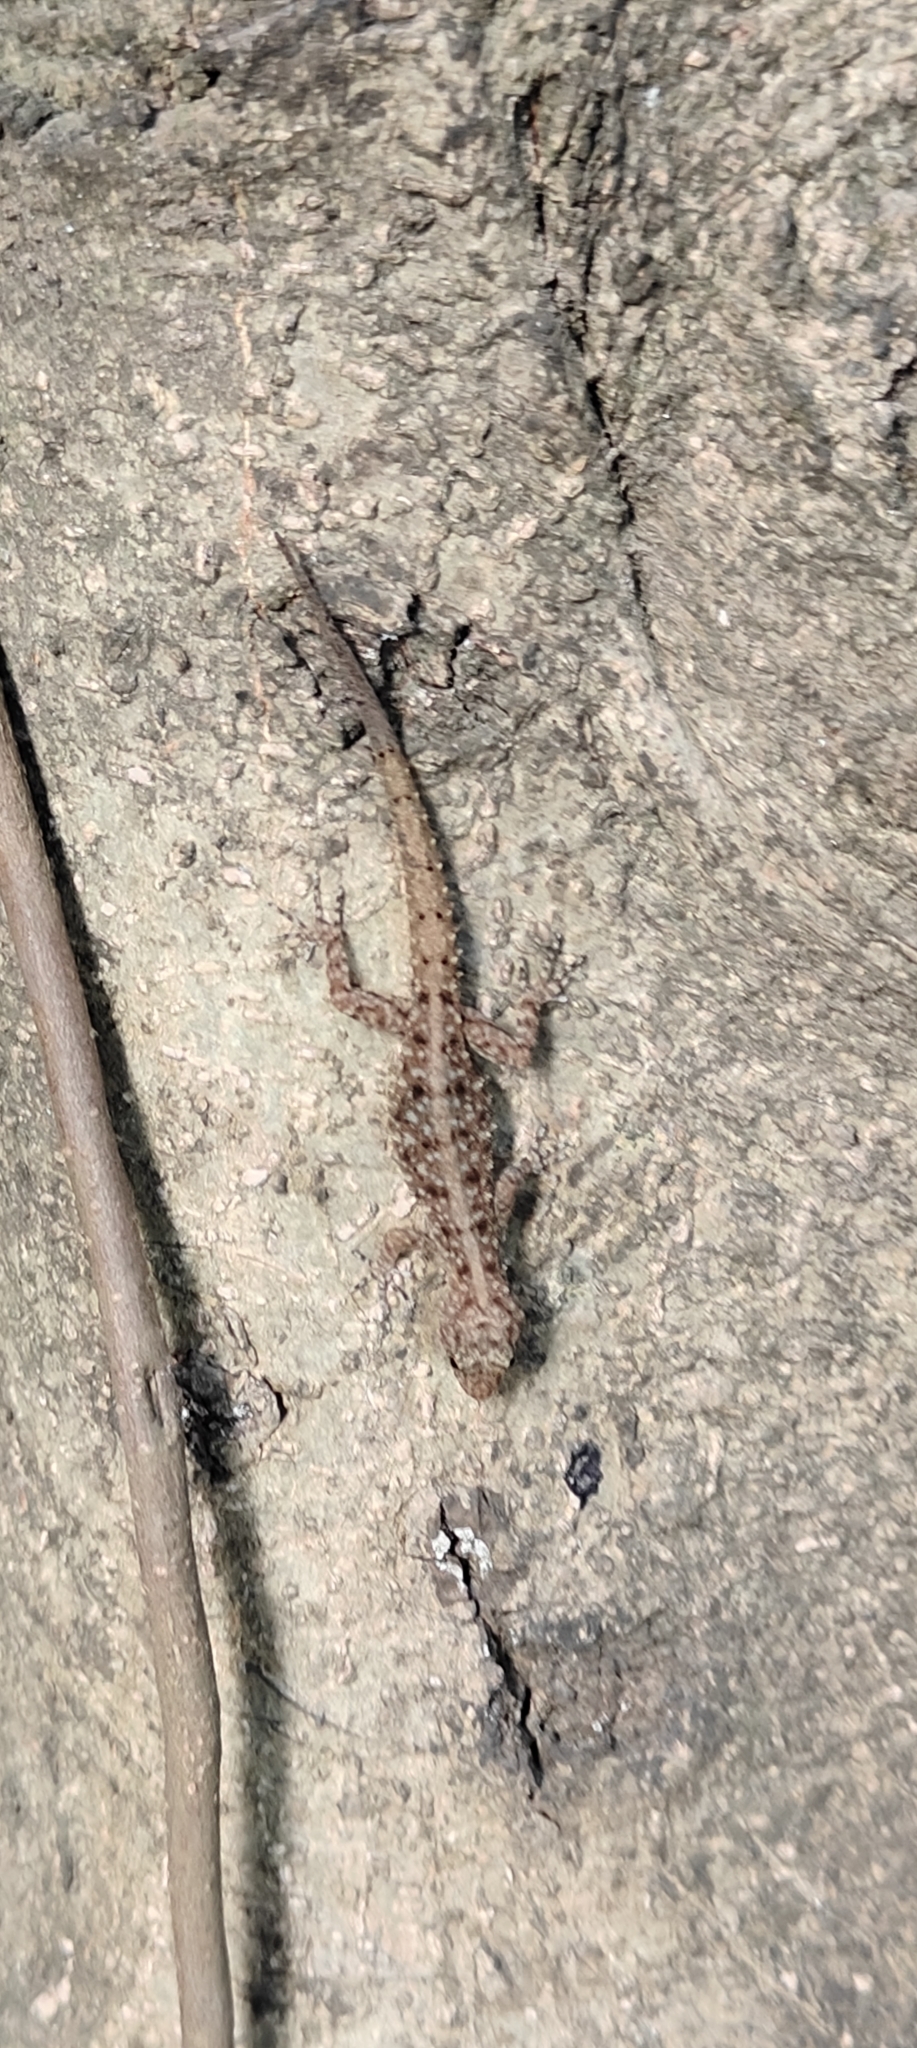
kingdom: Animalia
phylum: Chordata
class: Squamata
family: Gekkonidae
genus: Cnemaspis
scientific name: Cnemaspis mysoriensis
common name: Mysore day gecko
